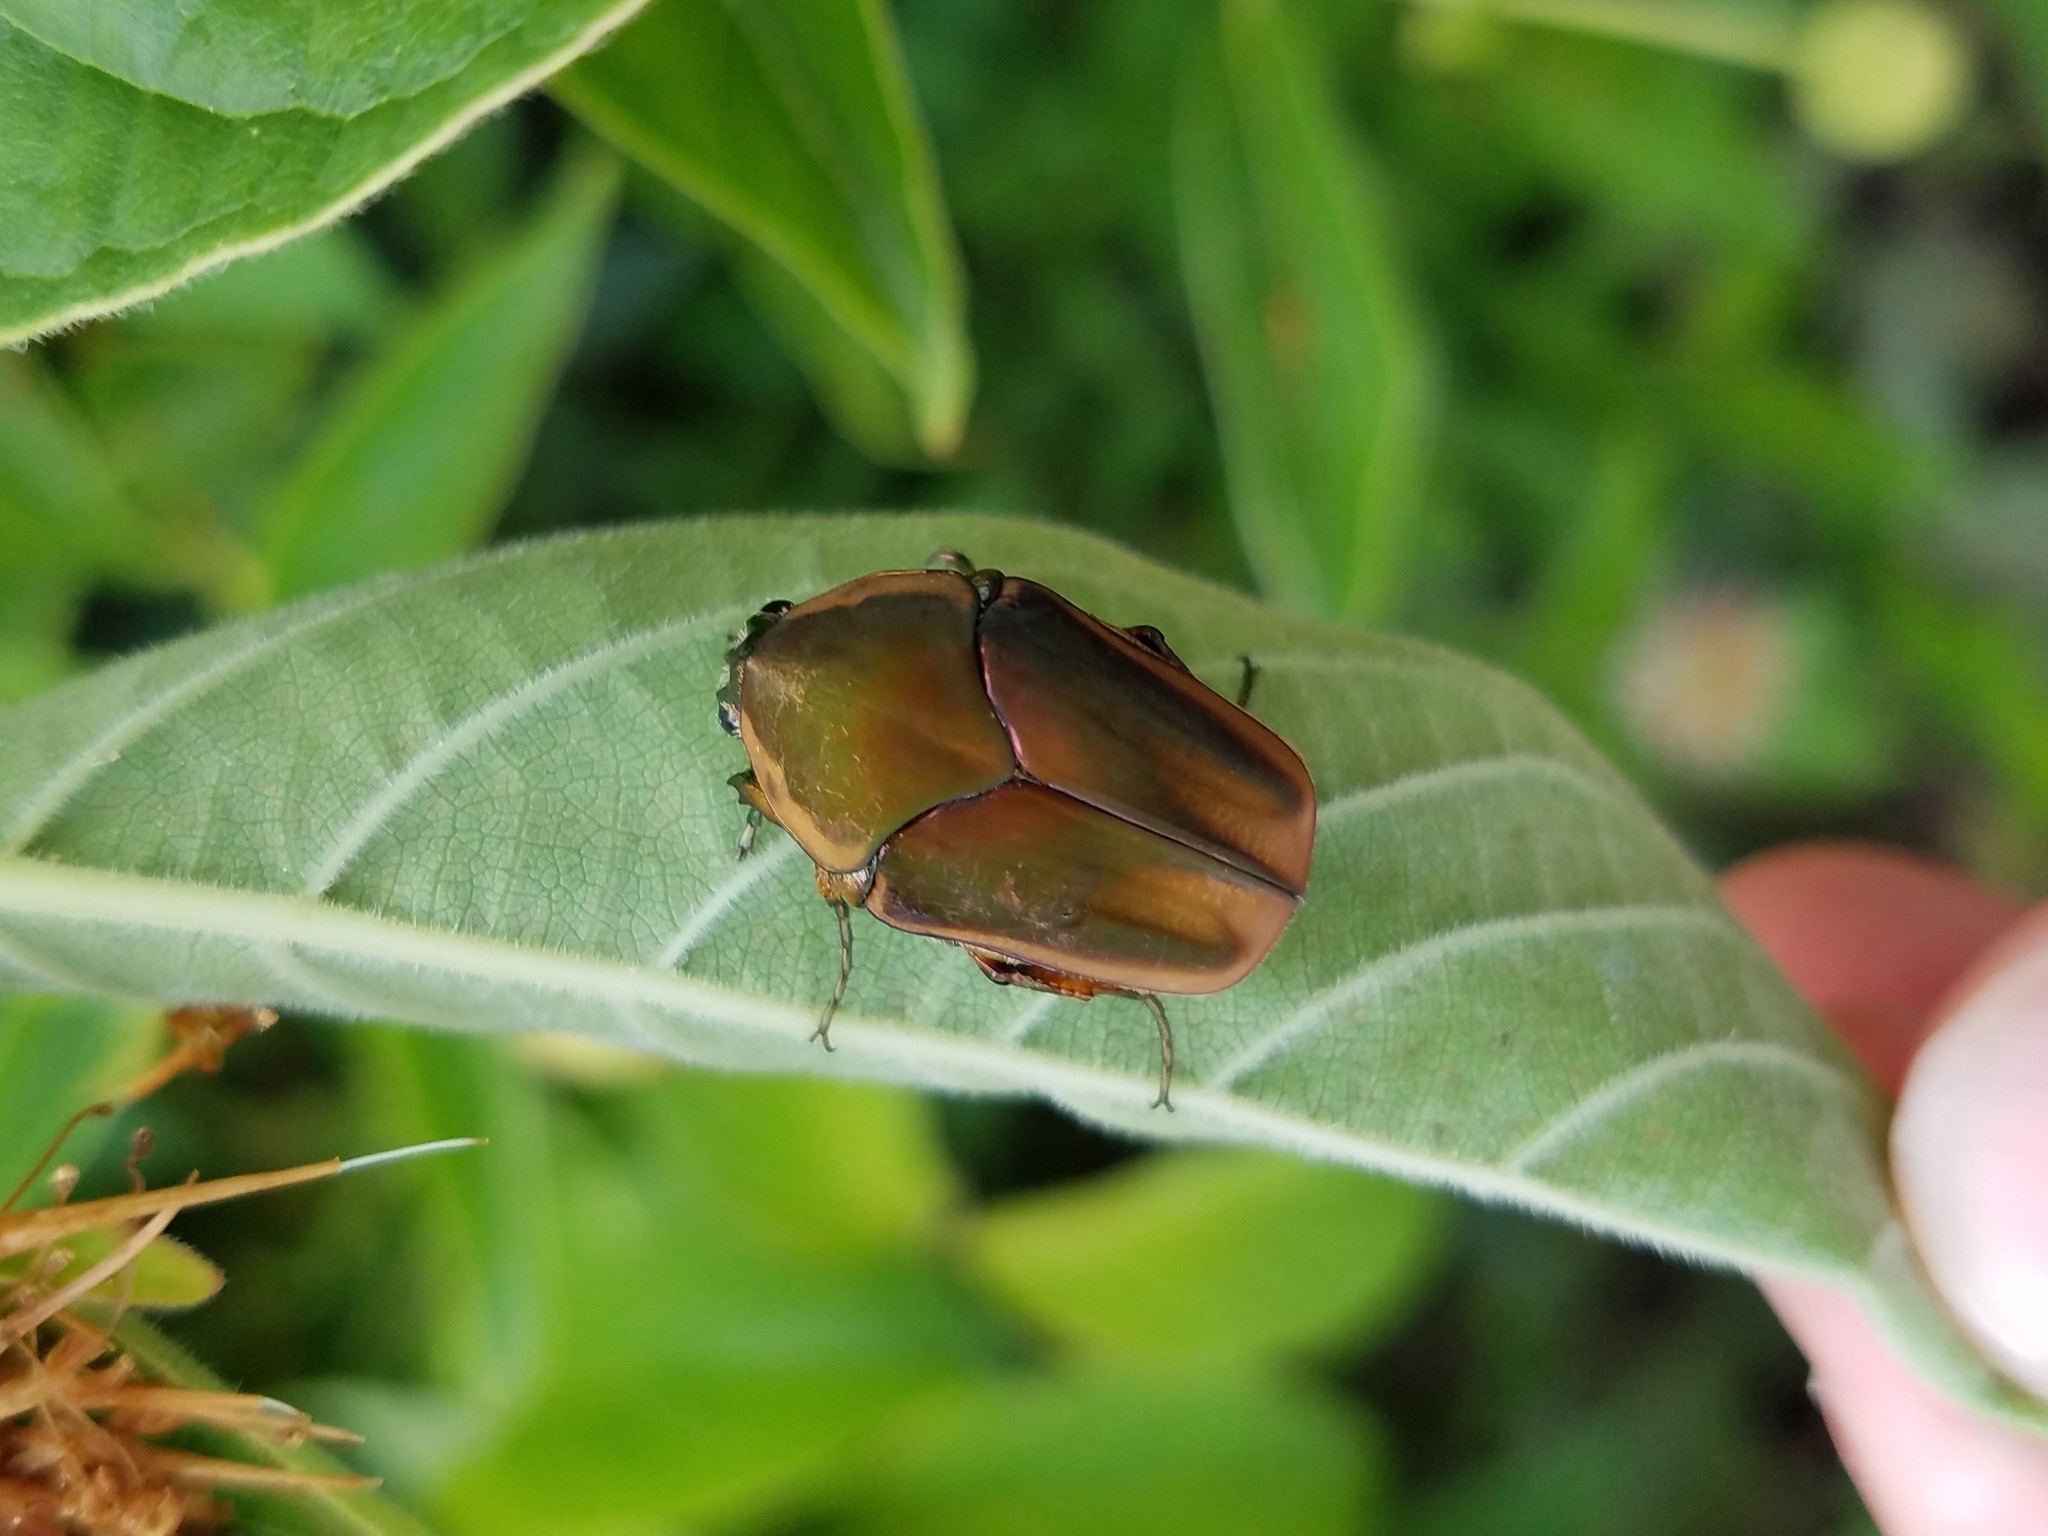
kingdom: Animalia
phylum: Arthropoda
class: Insecta
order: Coleoptera
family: Scarabaeidae
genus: Cotinis
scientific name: Cotinis nitida
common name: Common green june beetle
